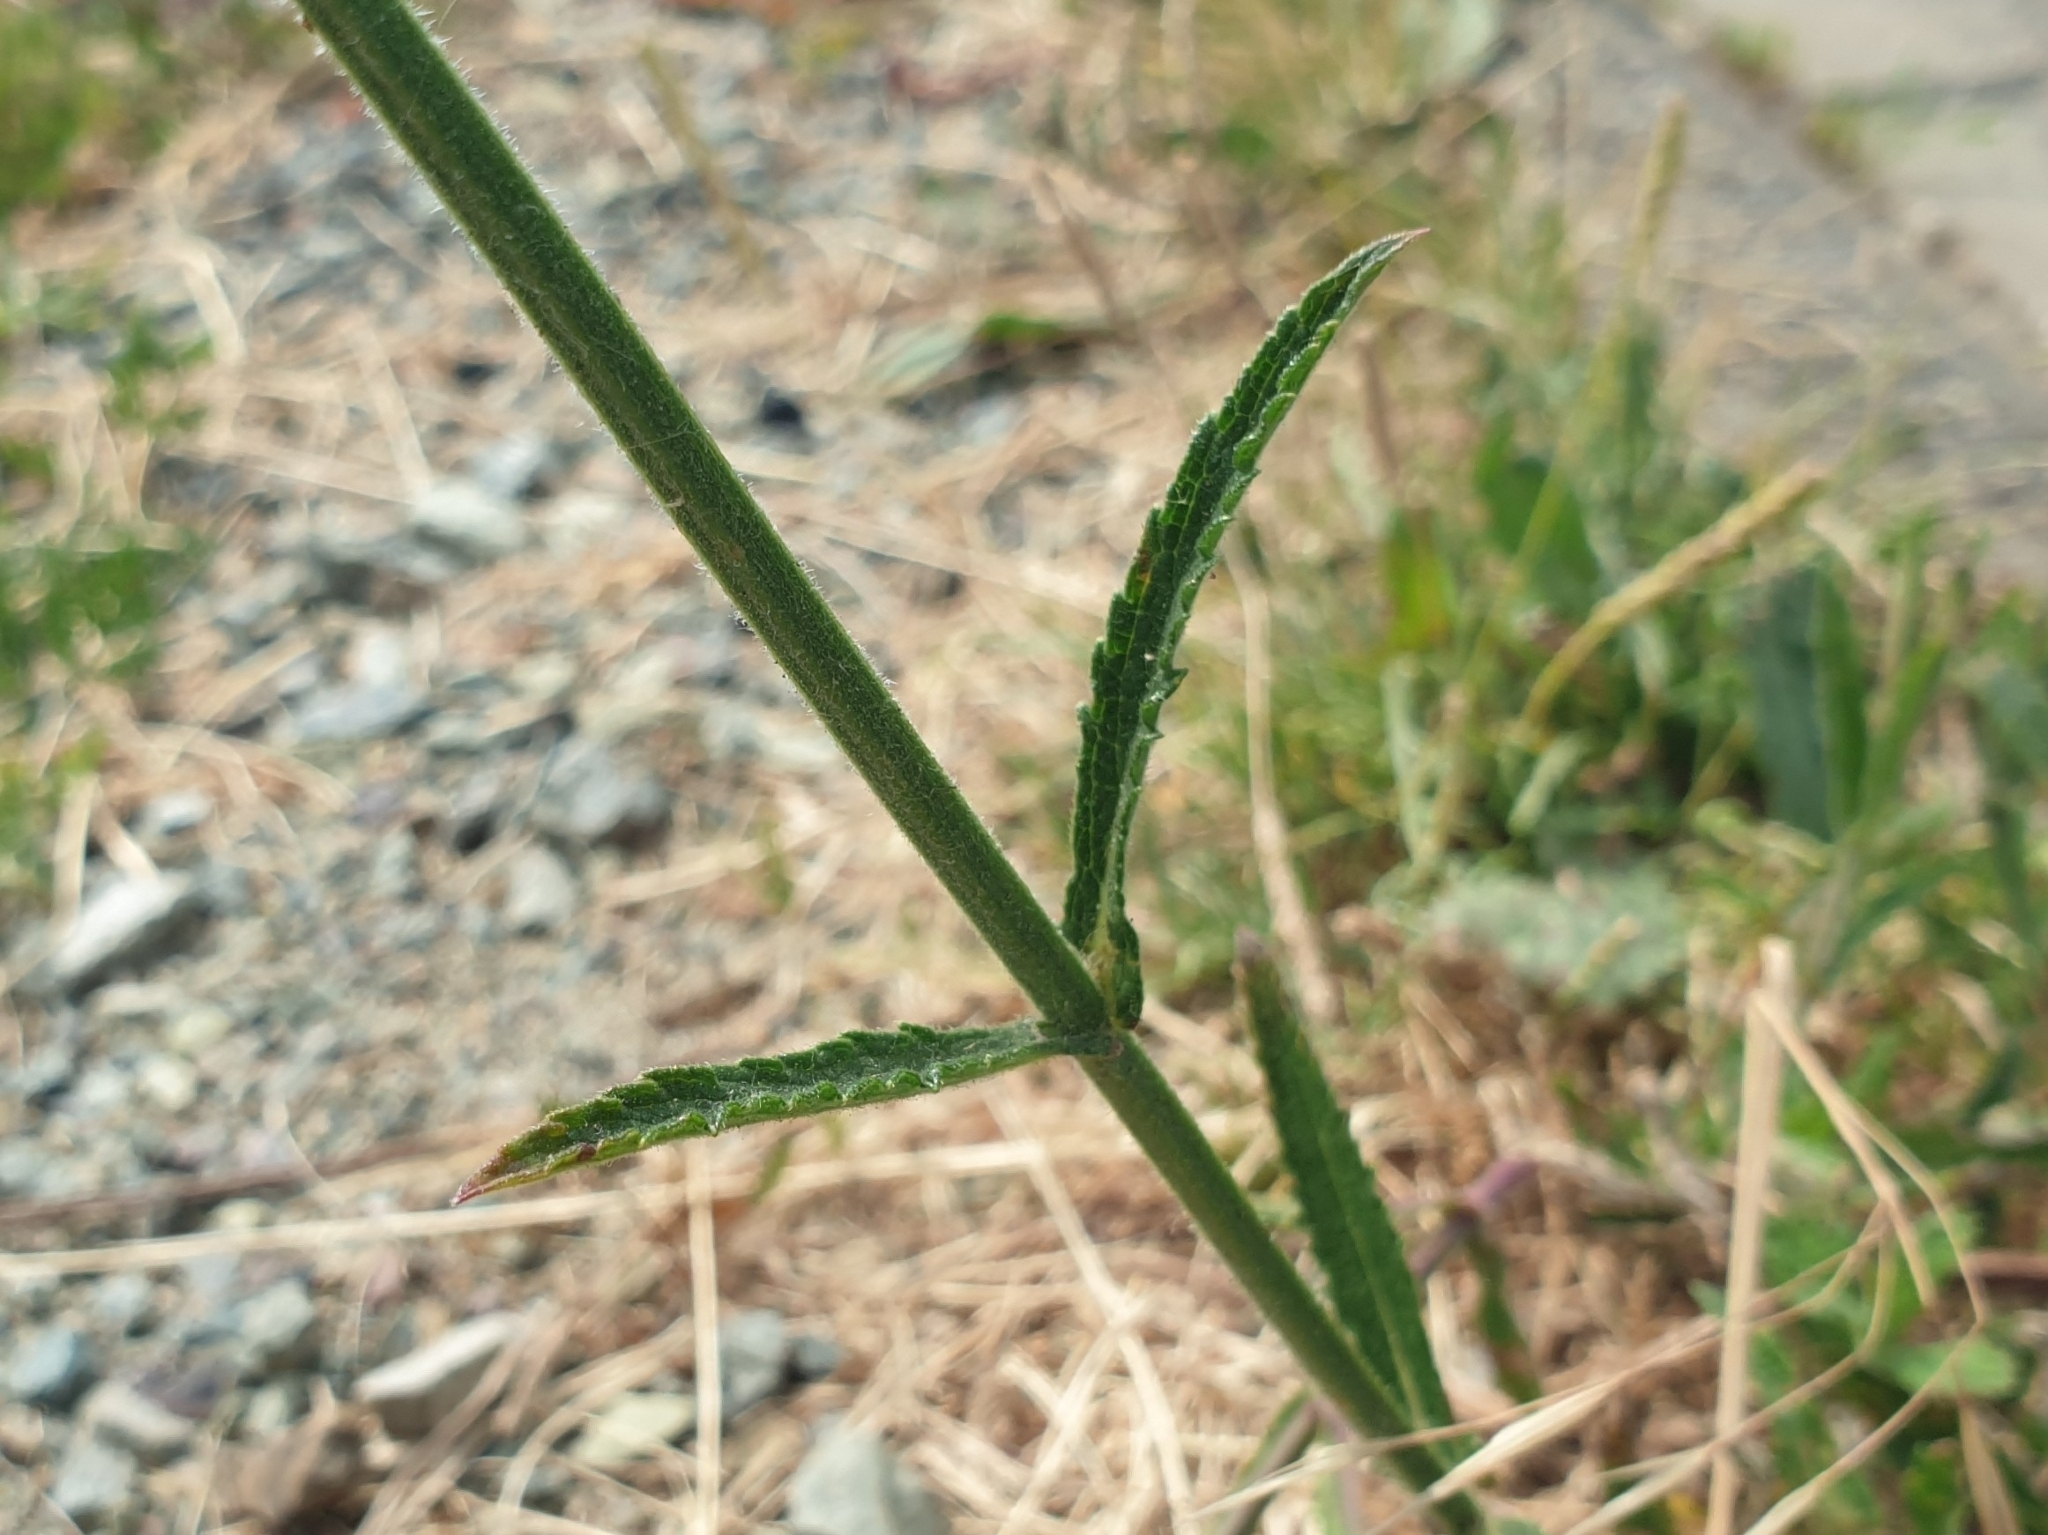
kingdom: Plantae
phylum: Tracheophyta
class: Magnoliopsida
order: Lamiales
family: Verbenaceae
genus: Verbena
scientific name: Verbena bonariensis
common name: Purpletop vervain
